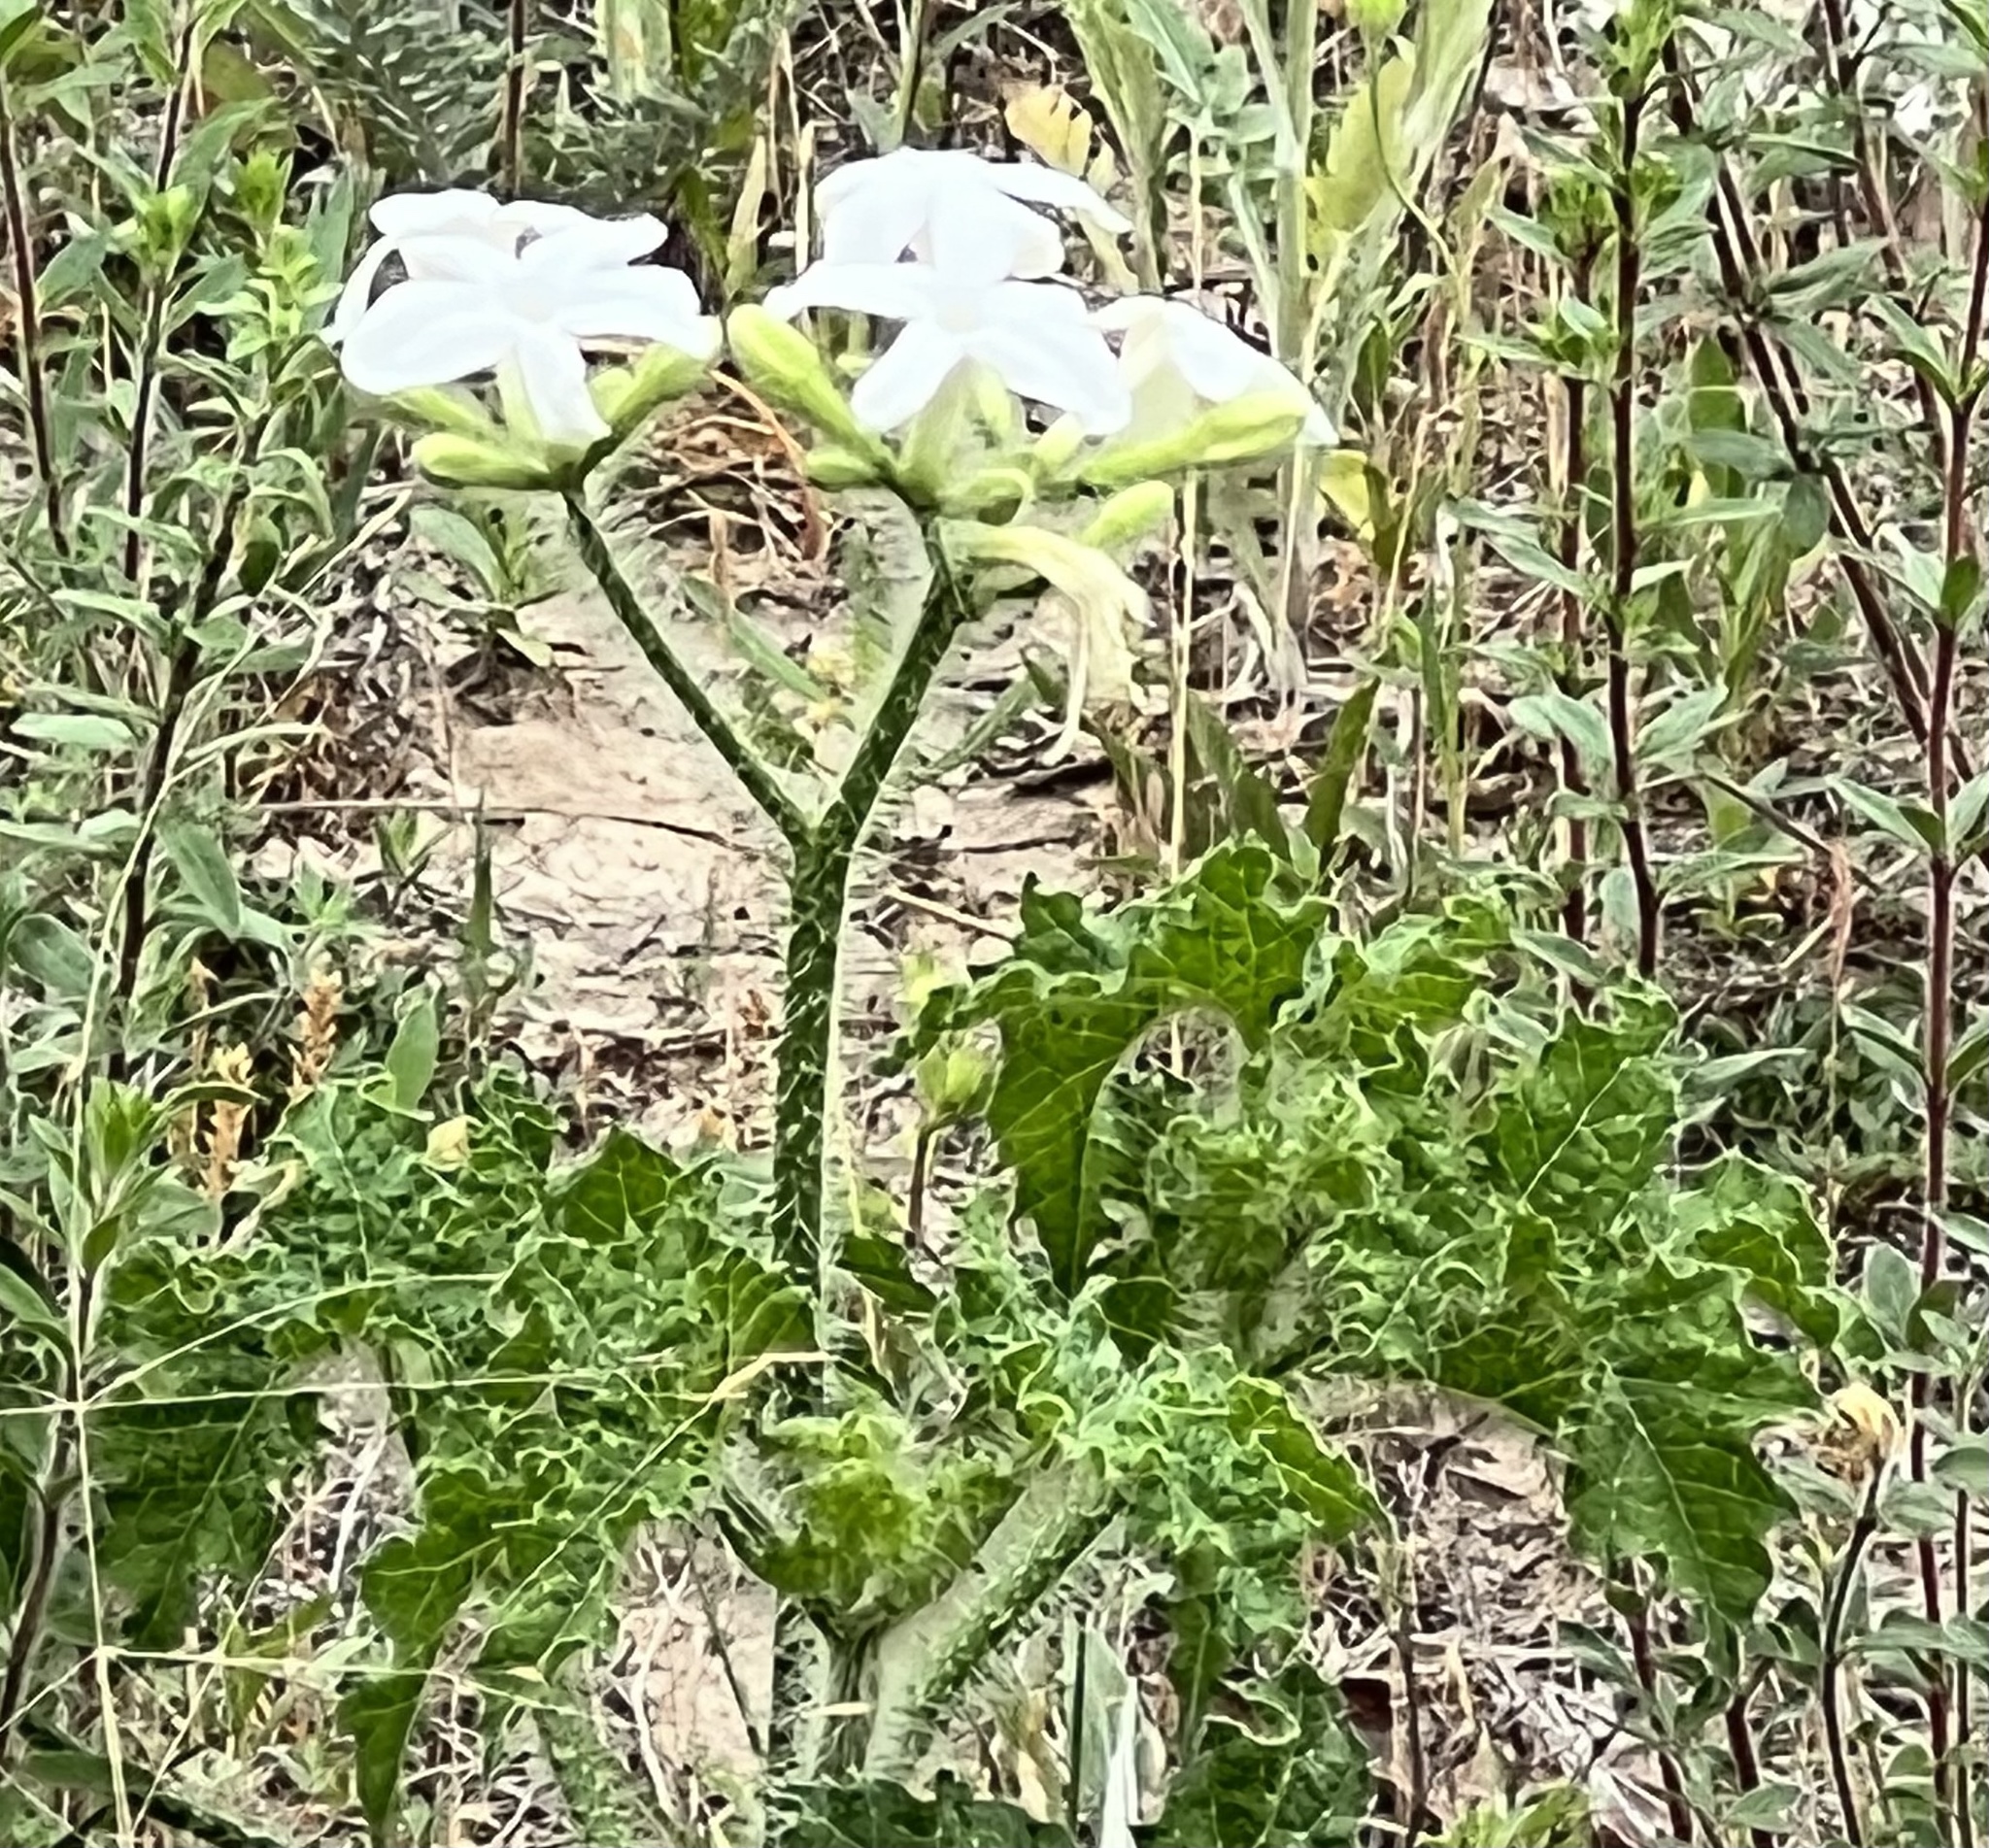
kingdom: Plantae
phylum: Tracheophyta
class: Magnoliopsida
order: Malpighiales
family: Euphorbiaceae
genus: Cnidoscolus
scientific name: Cnidoscolus texanus
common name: Texas bull-nettle
